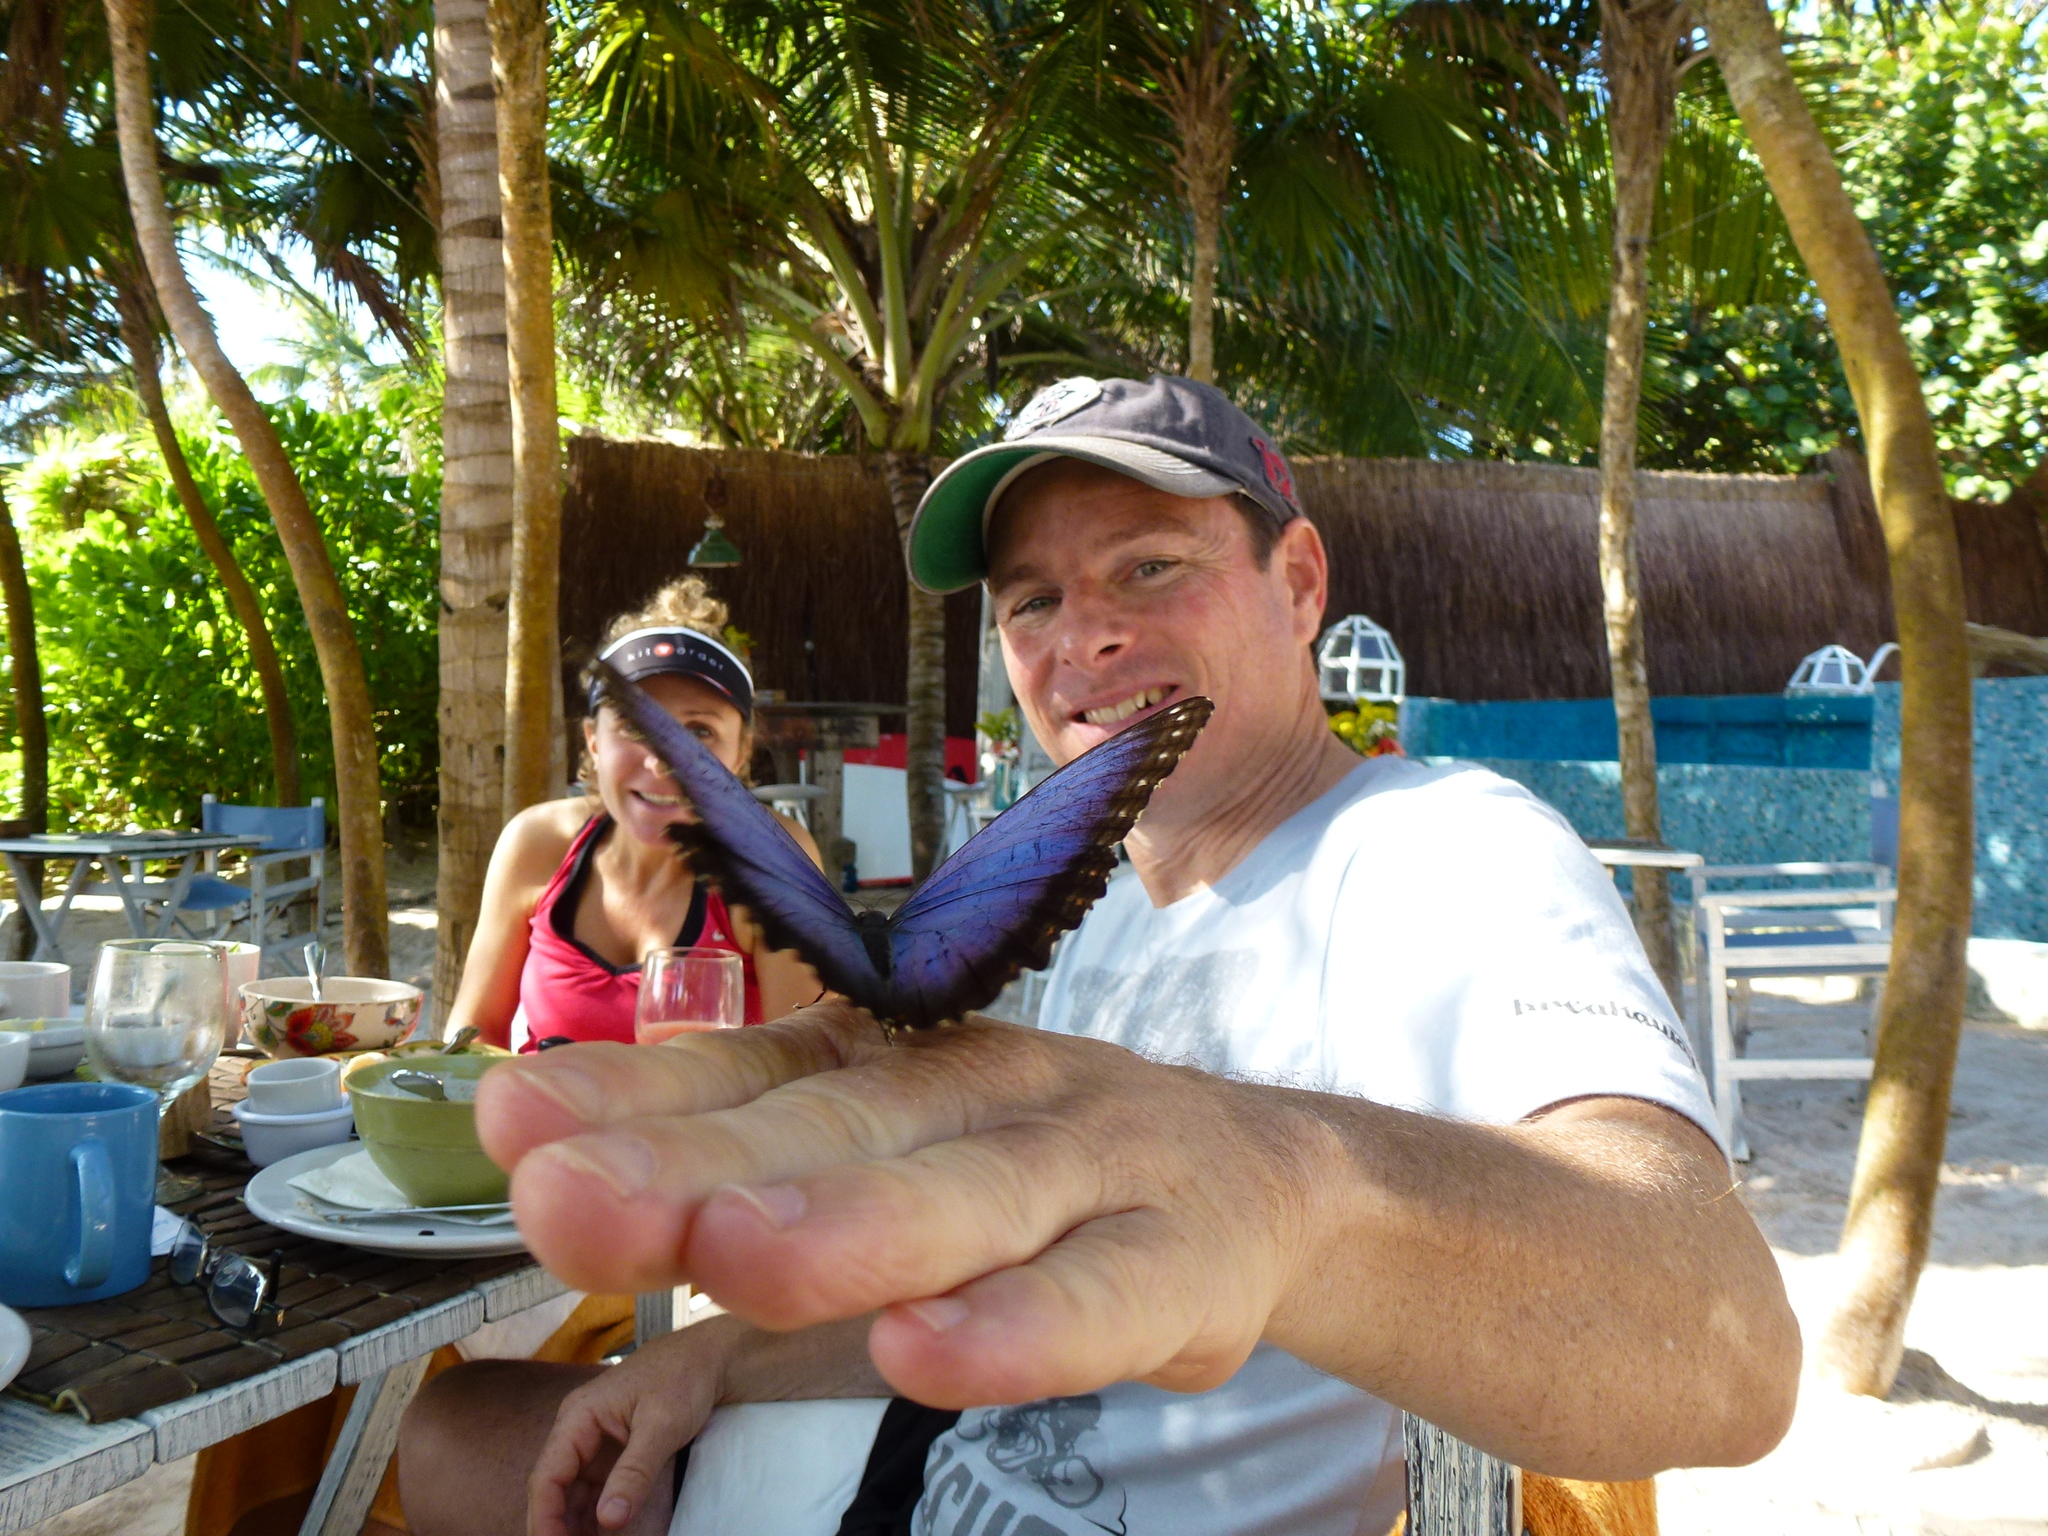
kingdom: Animalia
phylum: Arthropoda
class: Insecta
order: Lepidoptera
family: Nymphalidae
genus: Morpho
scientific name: Morpho helenor
